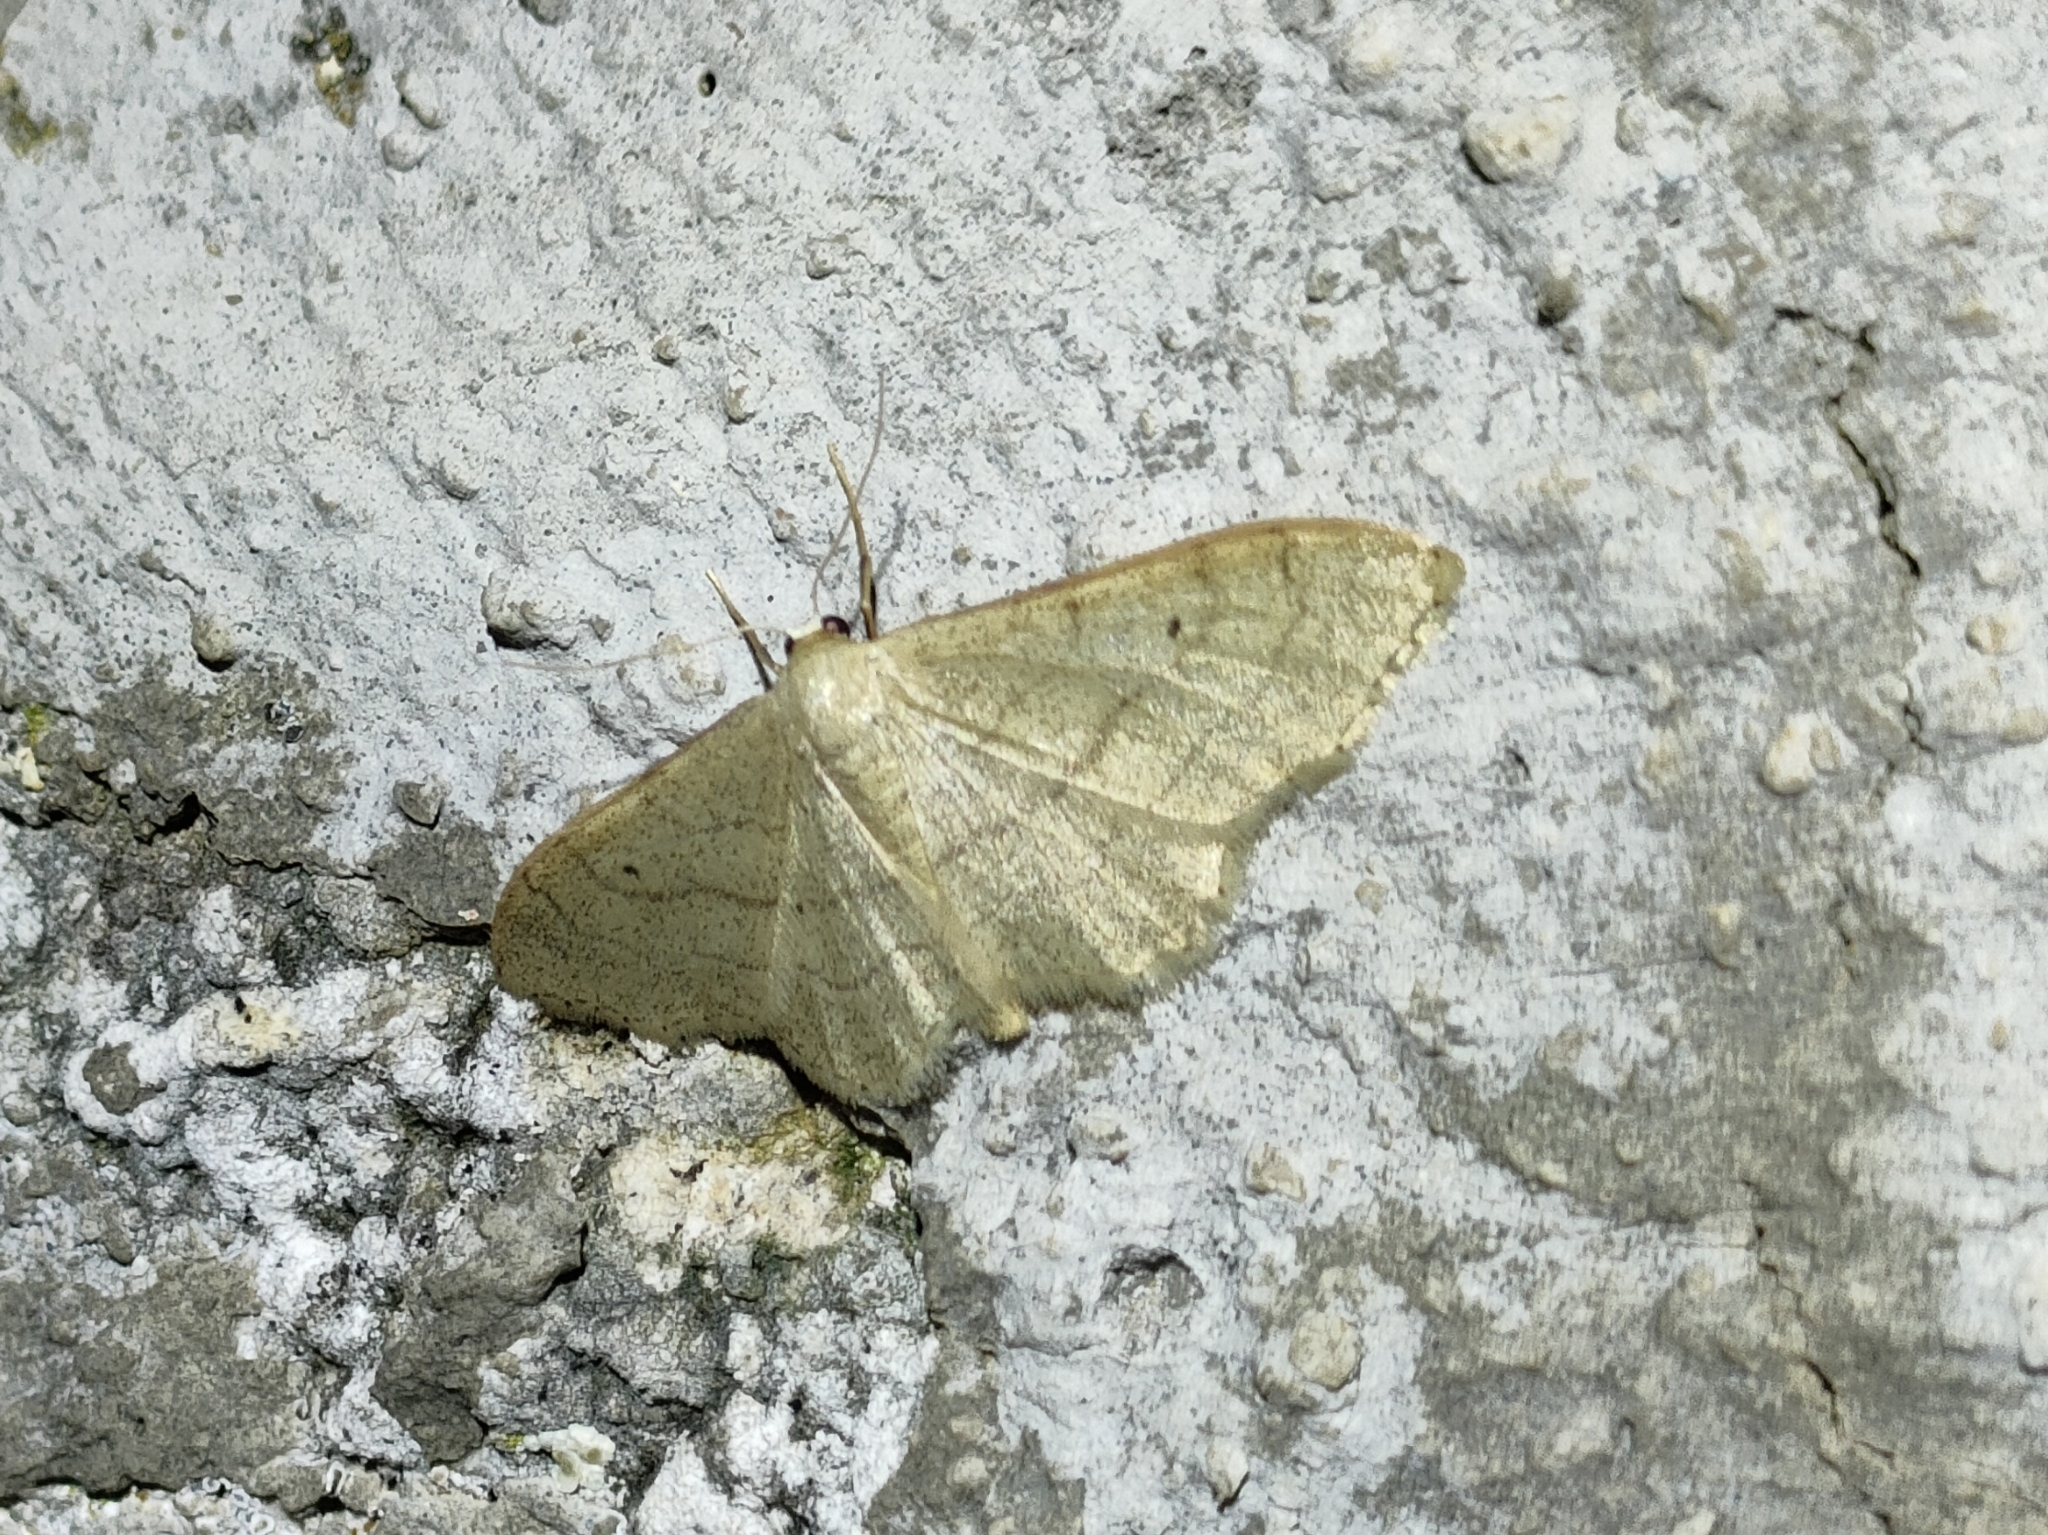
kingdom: Animalia
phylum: Arthropoda
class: Insecta
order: Lepidoptera
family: Geometridae
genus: Idaea
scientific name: Idaea aversata
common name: Riband wave
